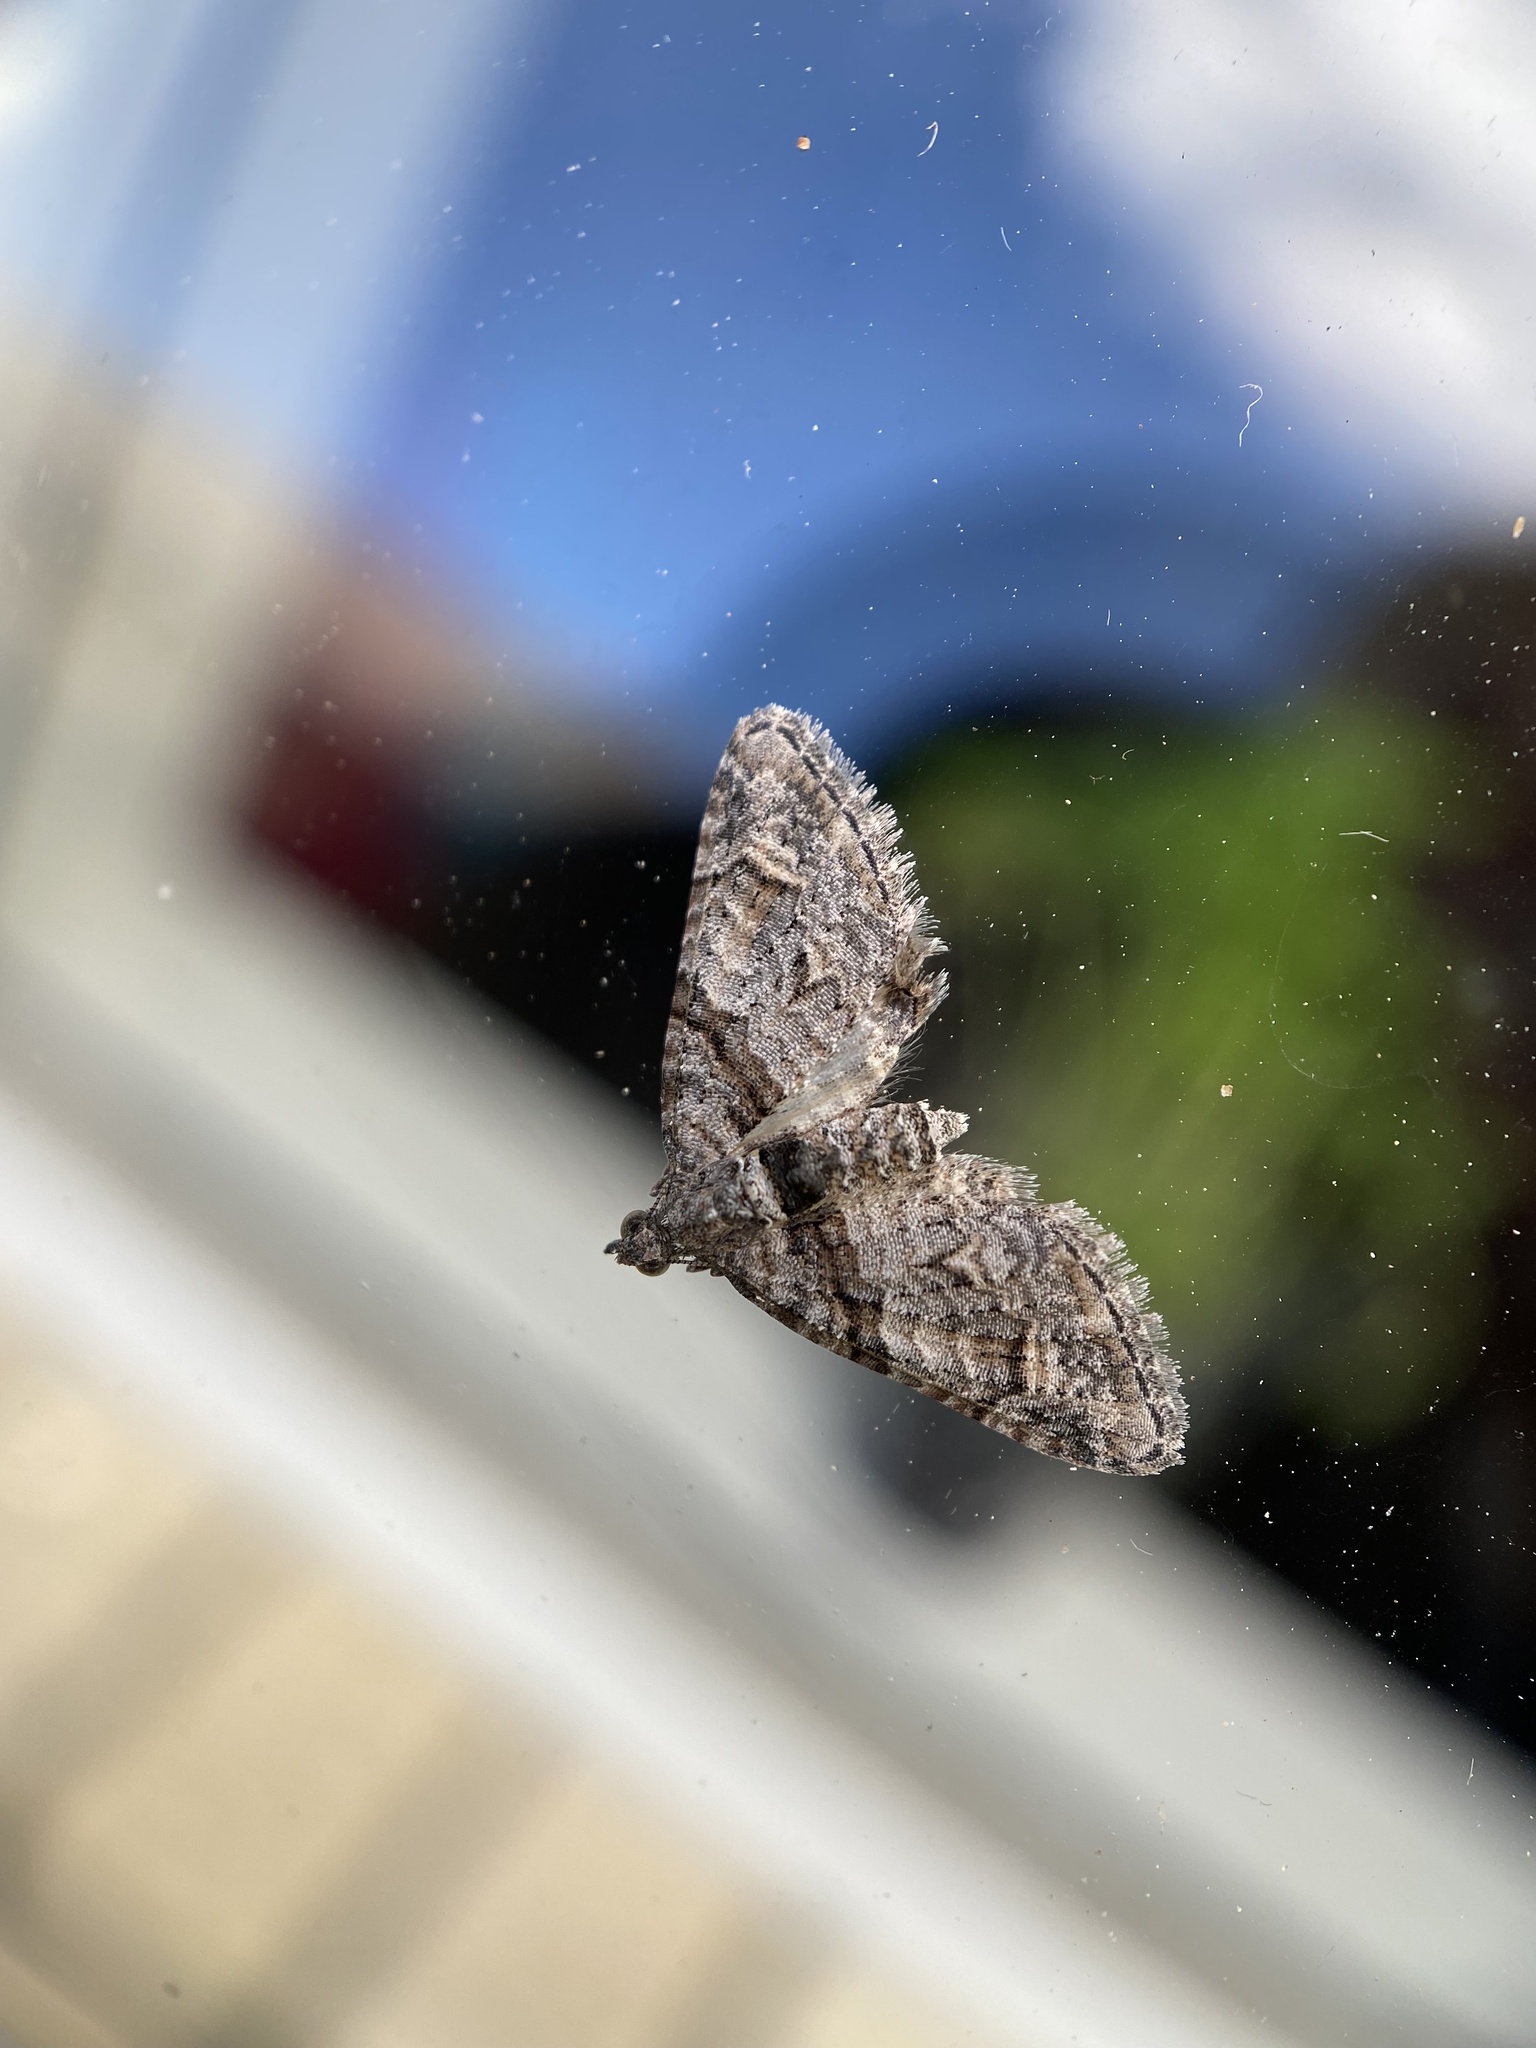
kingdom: Animalia
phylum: Arthropoda
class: Insecta
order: Lepidoptera
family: Geometridae
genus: Phrissogonus
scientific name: Phrissogonus laticostata
